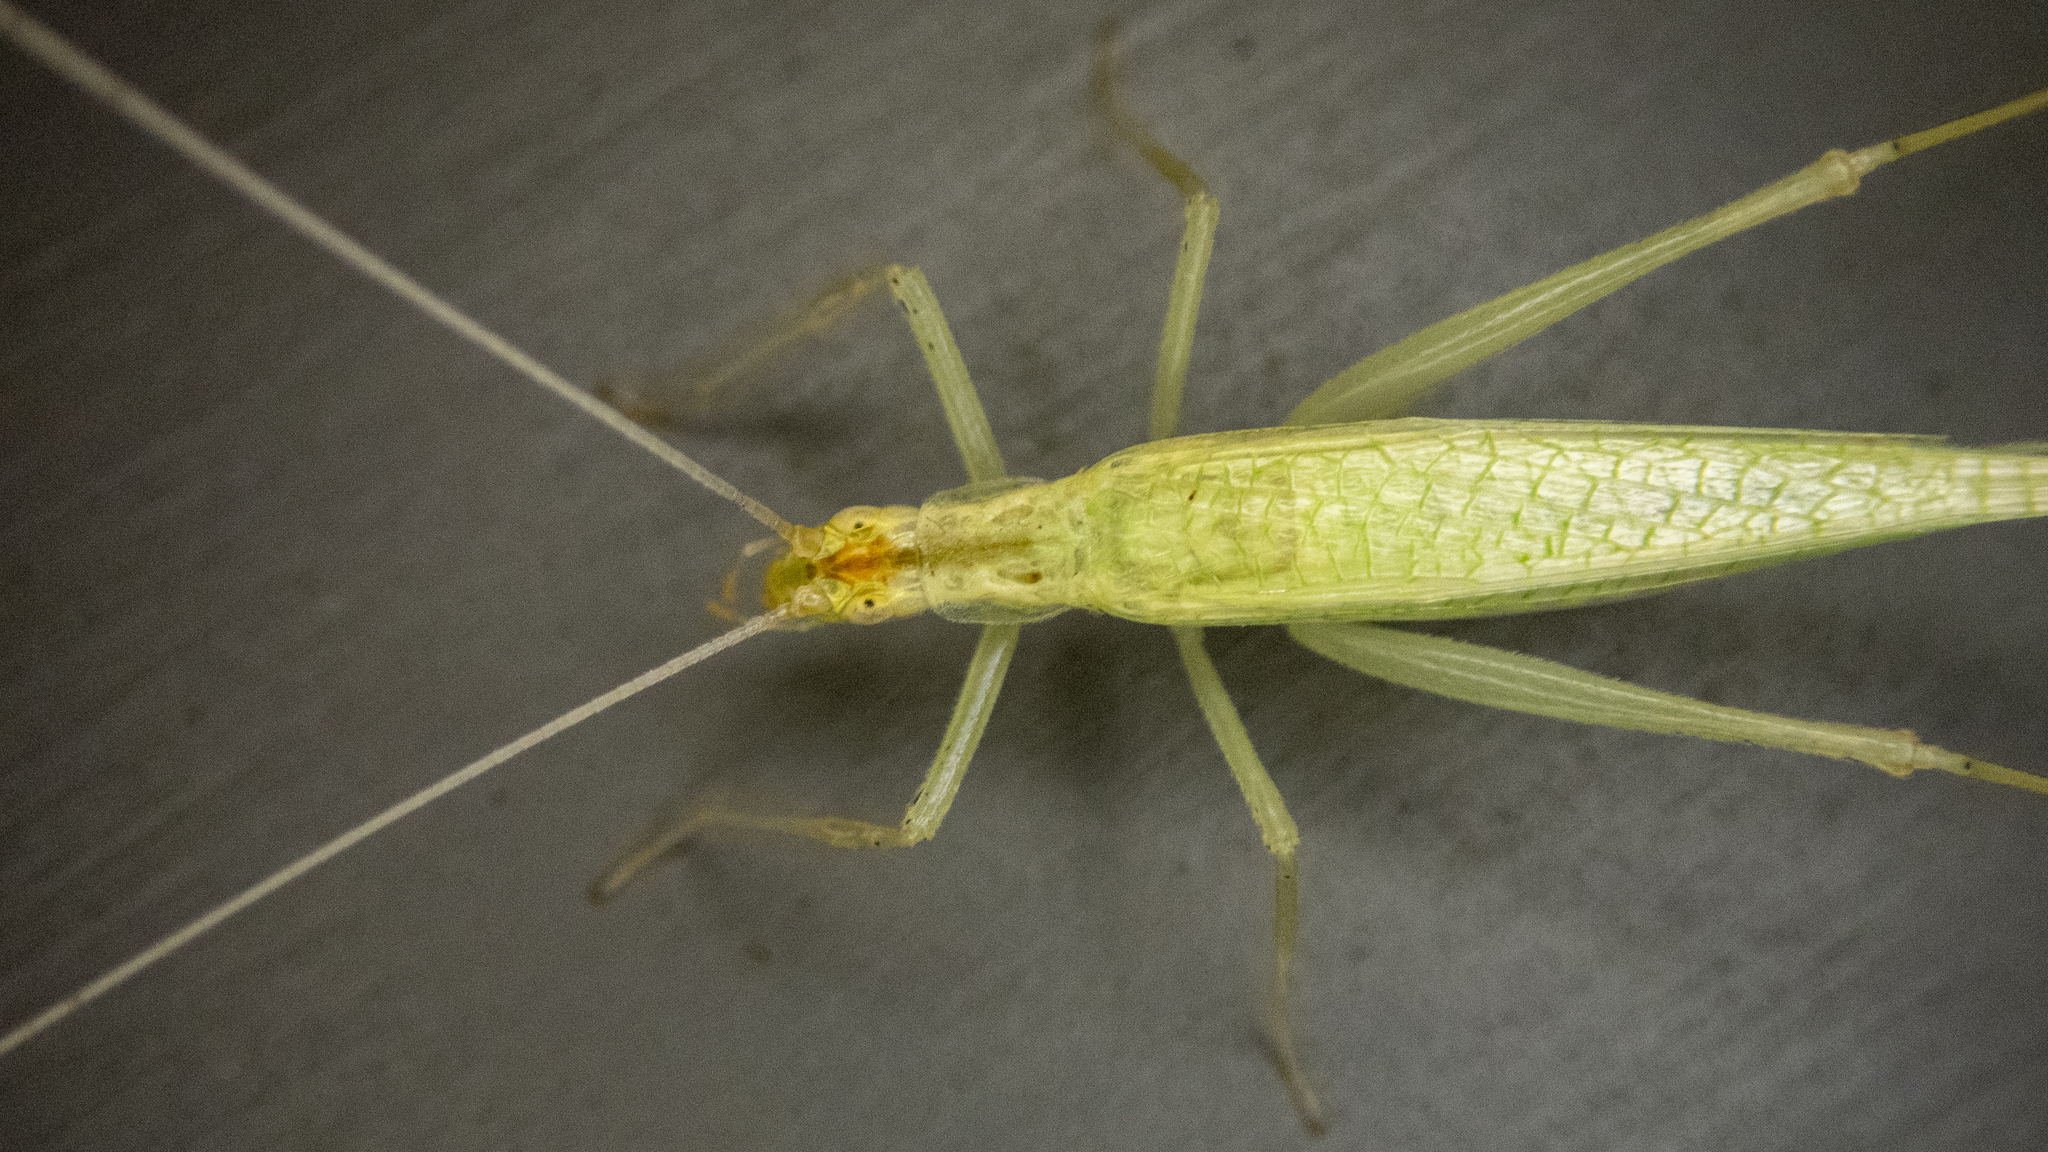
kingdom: Animalia
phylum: Arthropoda
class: Insecta
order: Orthoptera
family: Gryllidae
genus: Oecanthus
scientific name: Oecanthus niveus
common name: Narrow-winged tree cricket
